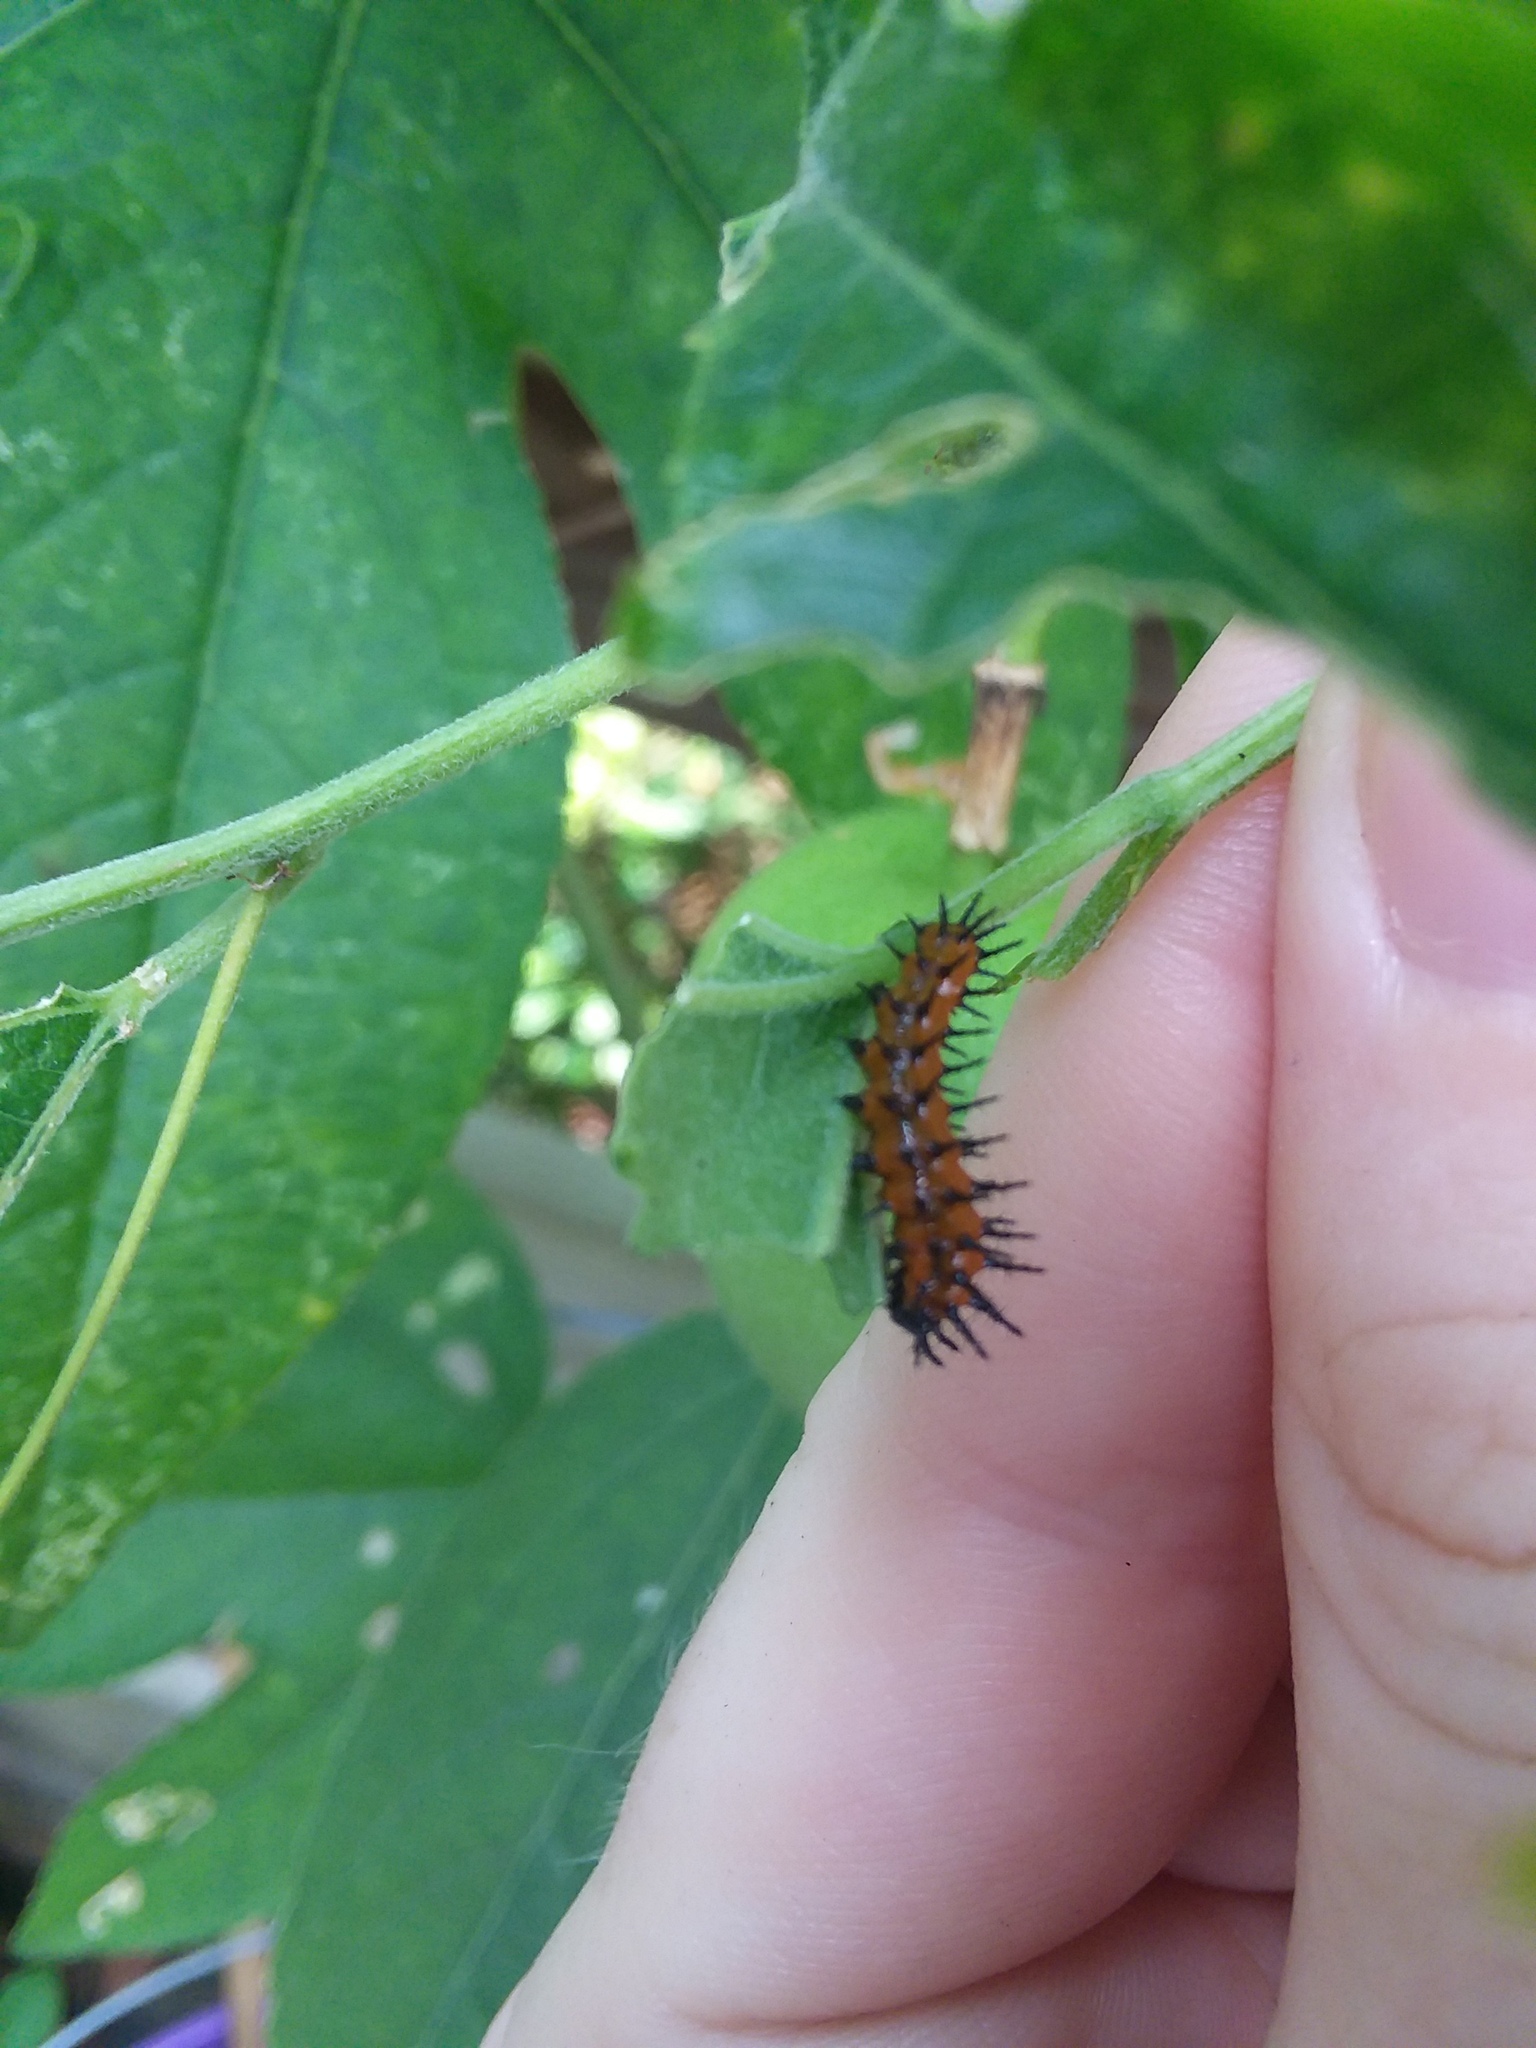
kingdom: Animalia
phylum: Arthropoda
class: Insecta
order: Lepidoptera
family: Nymphalidae
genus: Dione
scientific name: Dione vanillae
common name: Gulf fritillary
